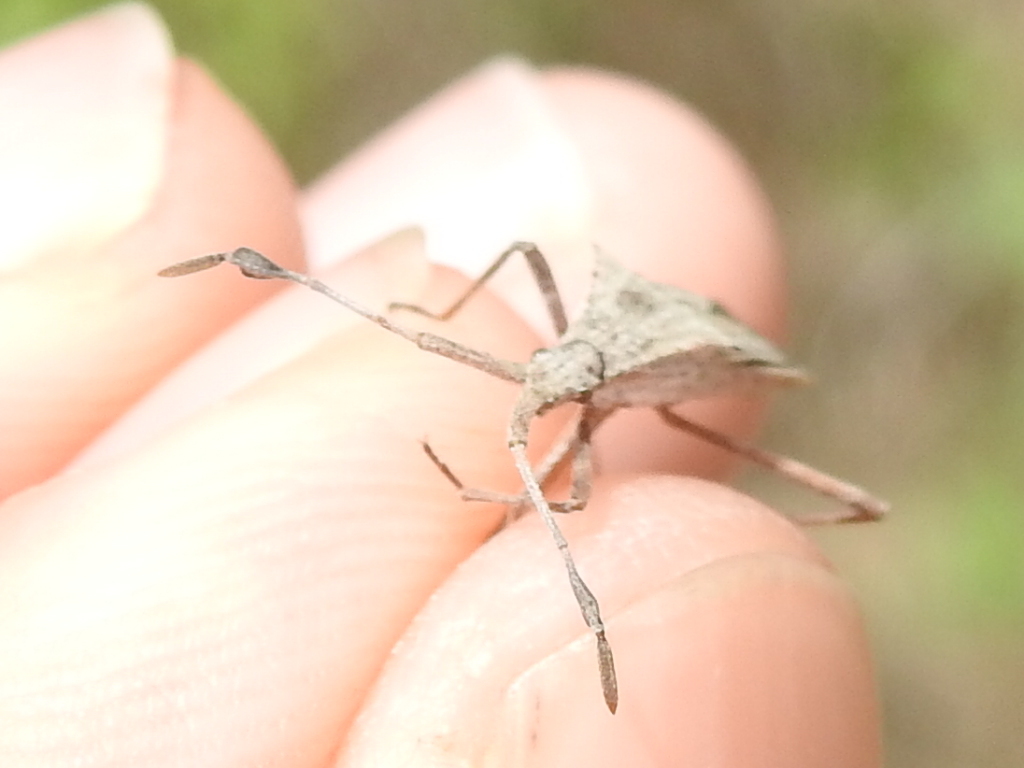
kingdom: Animalia
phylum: Arthropoda
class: Insecta
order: Hemiptera
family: Coreidae
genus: Chariesterus
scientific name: Chariesterus antennator
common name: Flat horned coreid
